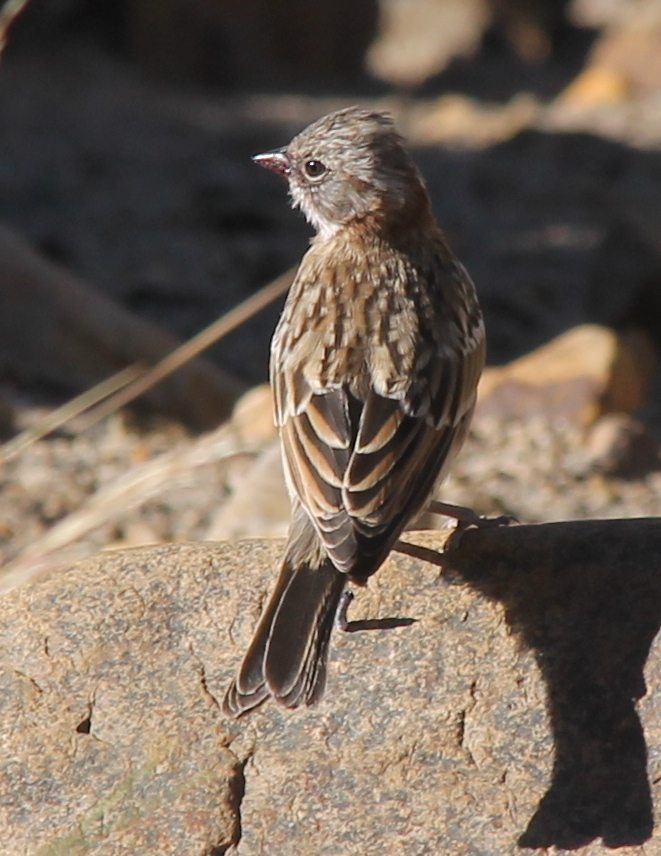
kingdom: Animalia
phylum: Chordata
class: Aves
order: Passeriformes
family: Passerellidae
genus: Zonotrichia
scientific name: Zonotrichia capensis
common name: Rufous-collared sparrow
